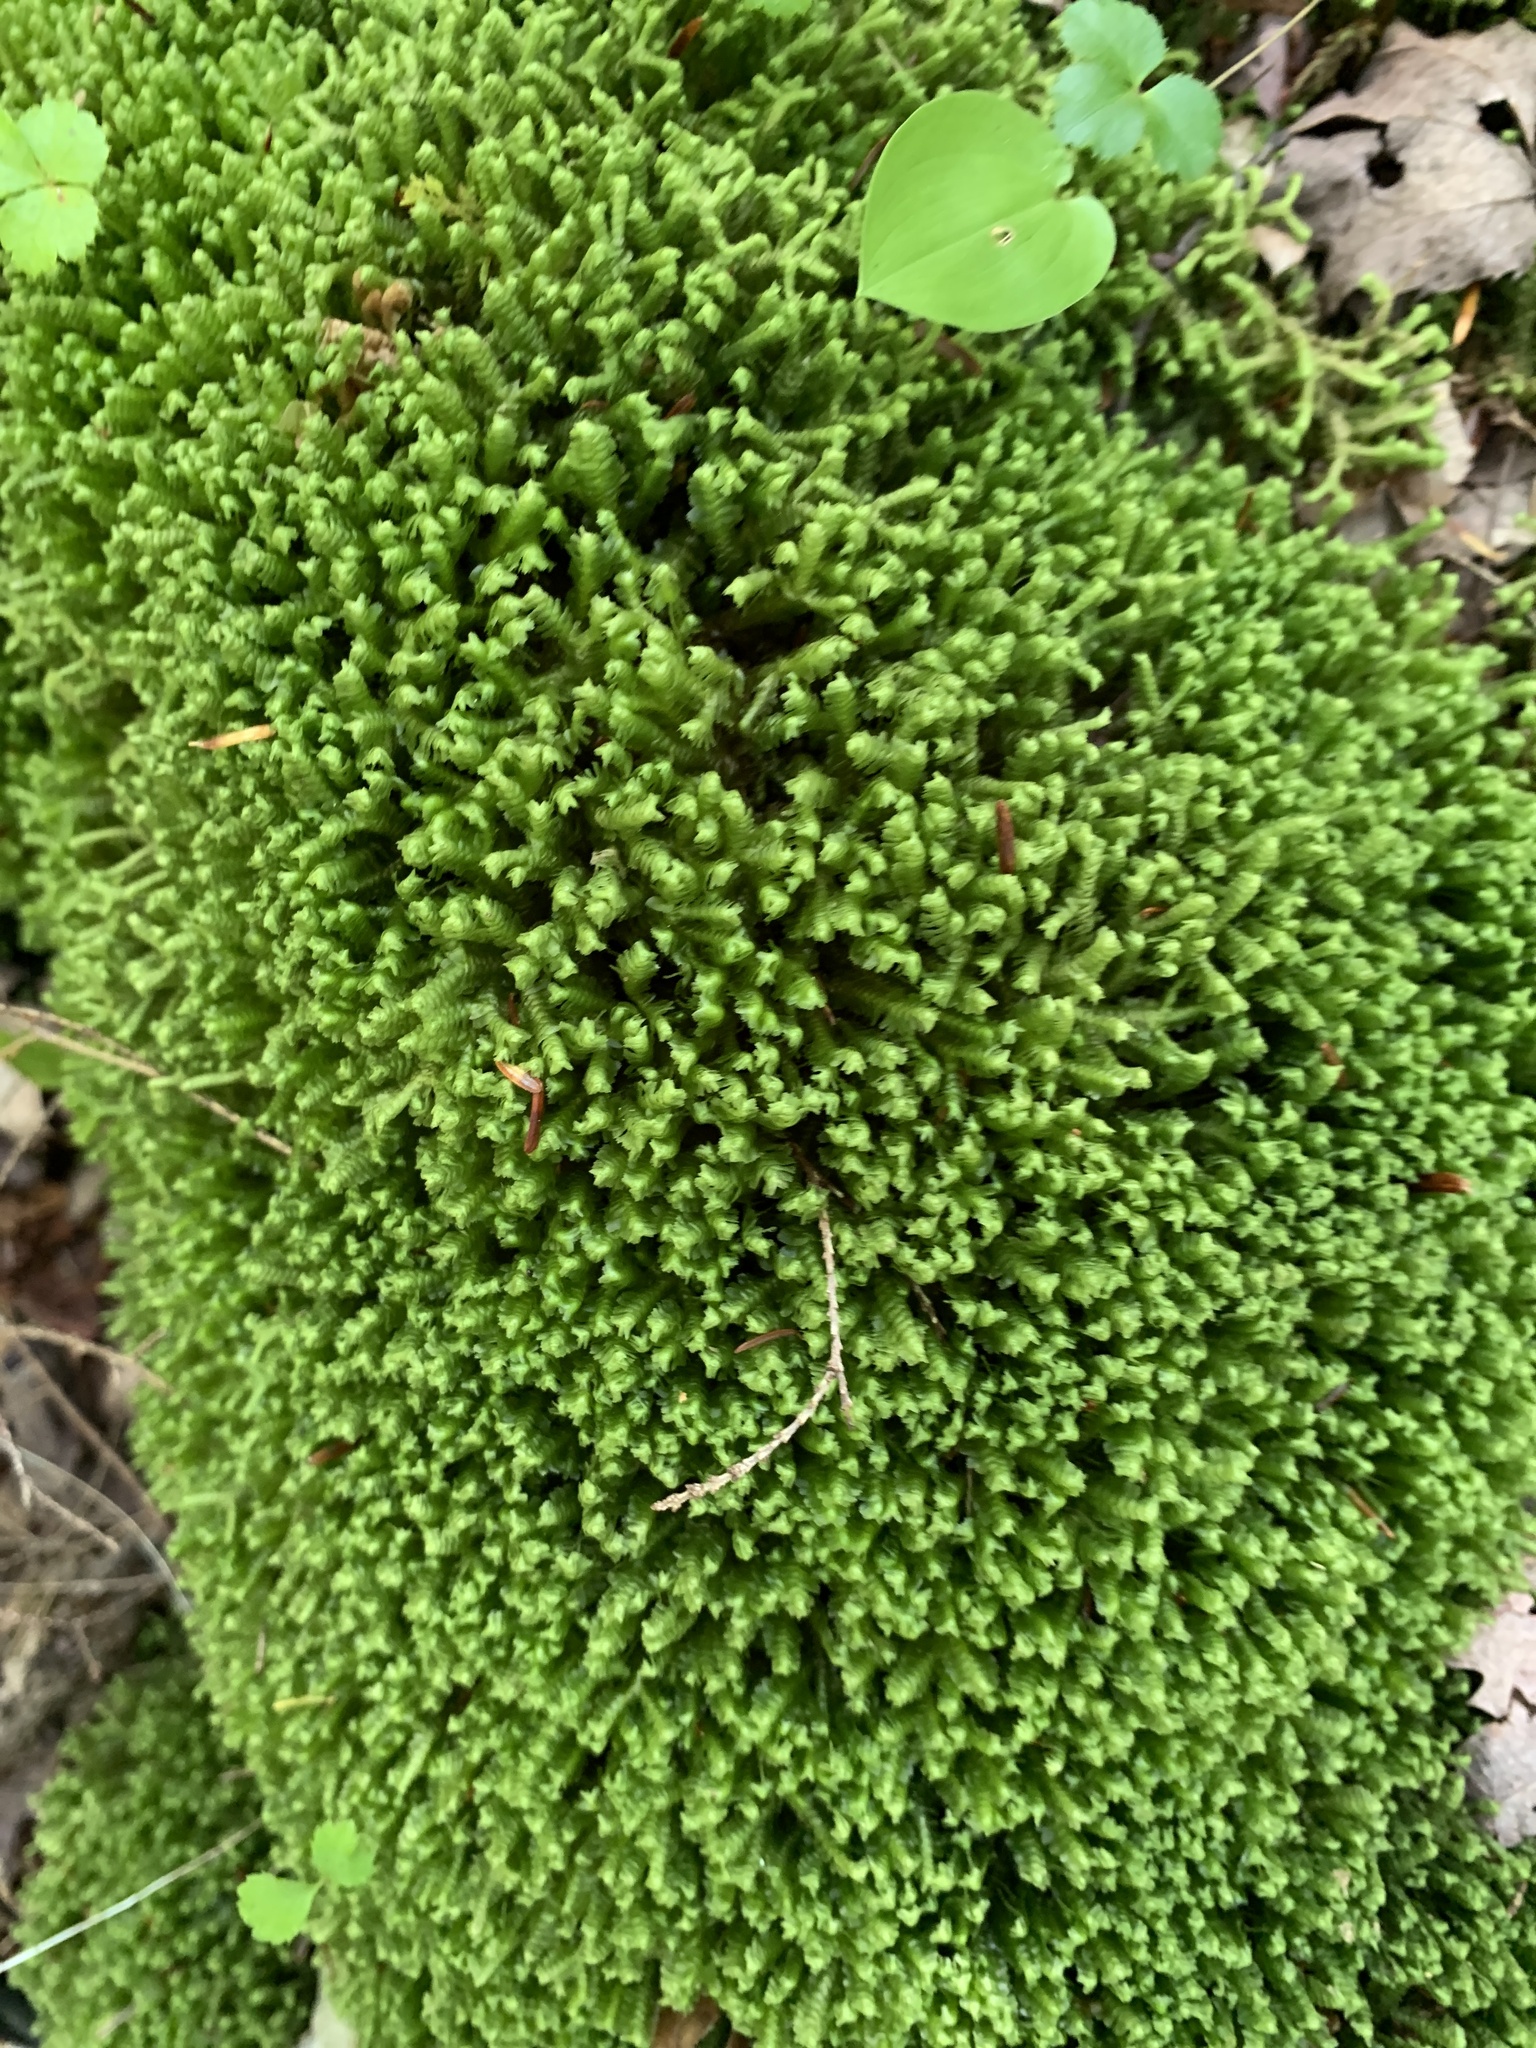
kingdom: Plantae
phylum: Marchantiophyta
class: Jungermanniopsida
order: Jungermanniales
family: Lepidoziaceae
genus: Bazzania
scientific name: Bazzania trilobata
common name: Three-lobed whipwort
